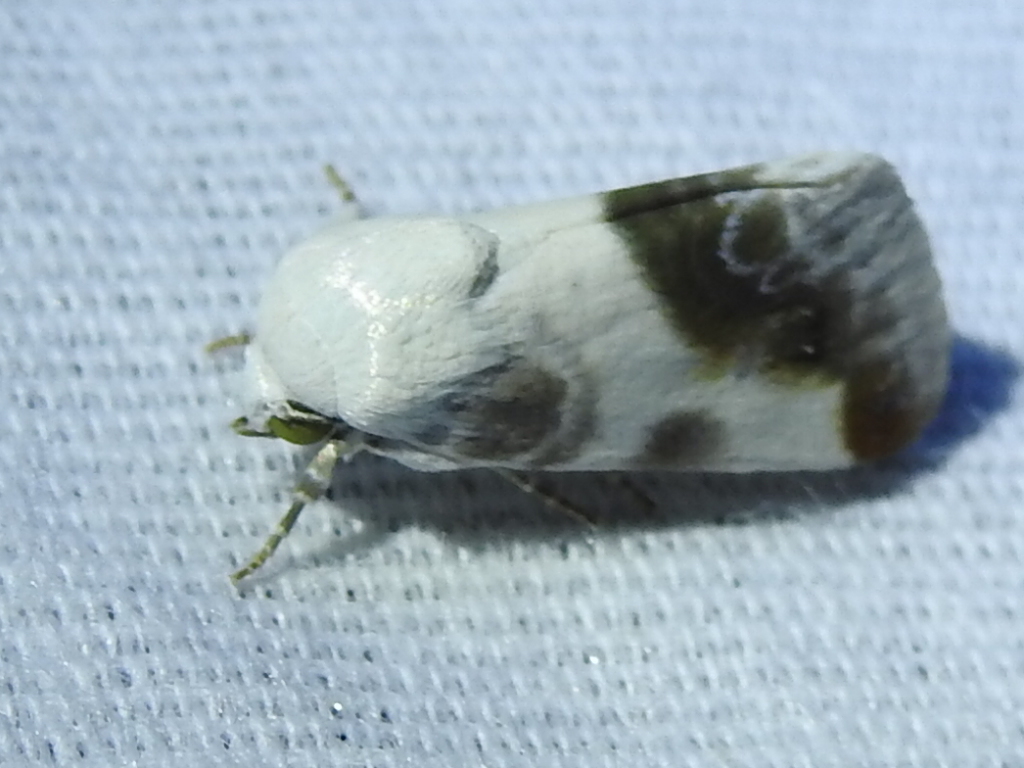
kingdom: Animalia
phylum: Arthropoda
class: Insecta
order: Lepidoptera
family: Noctuidae
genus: Acontia
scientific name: Acontia cretata
